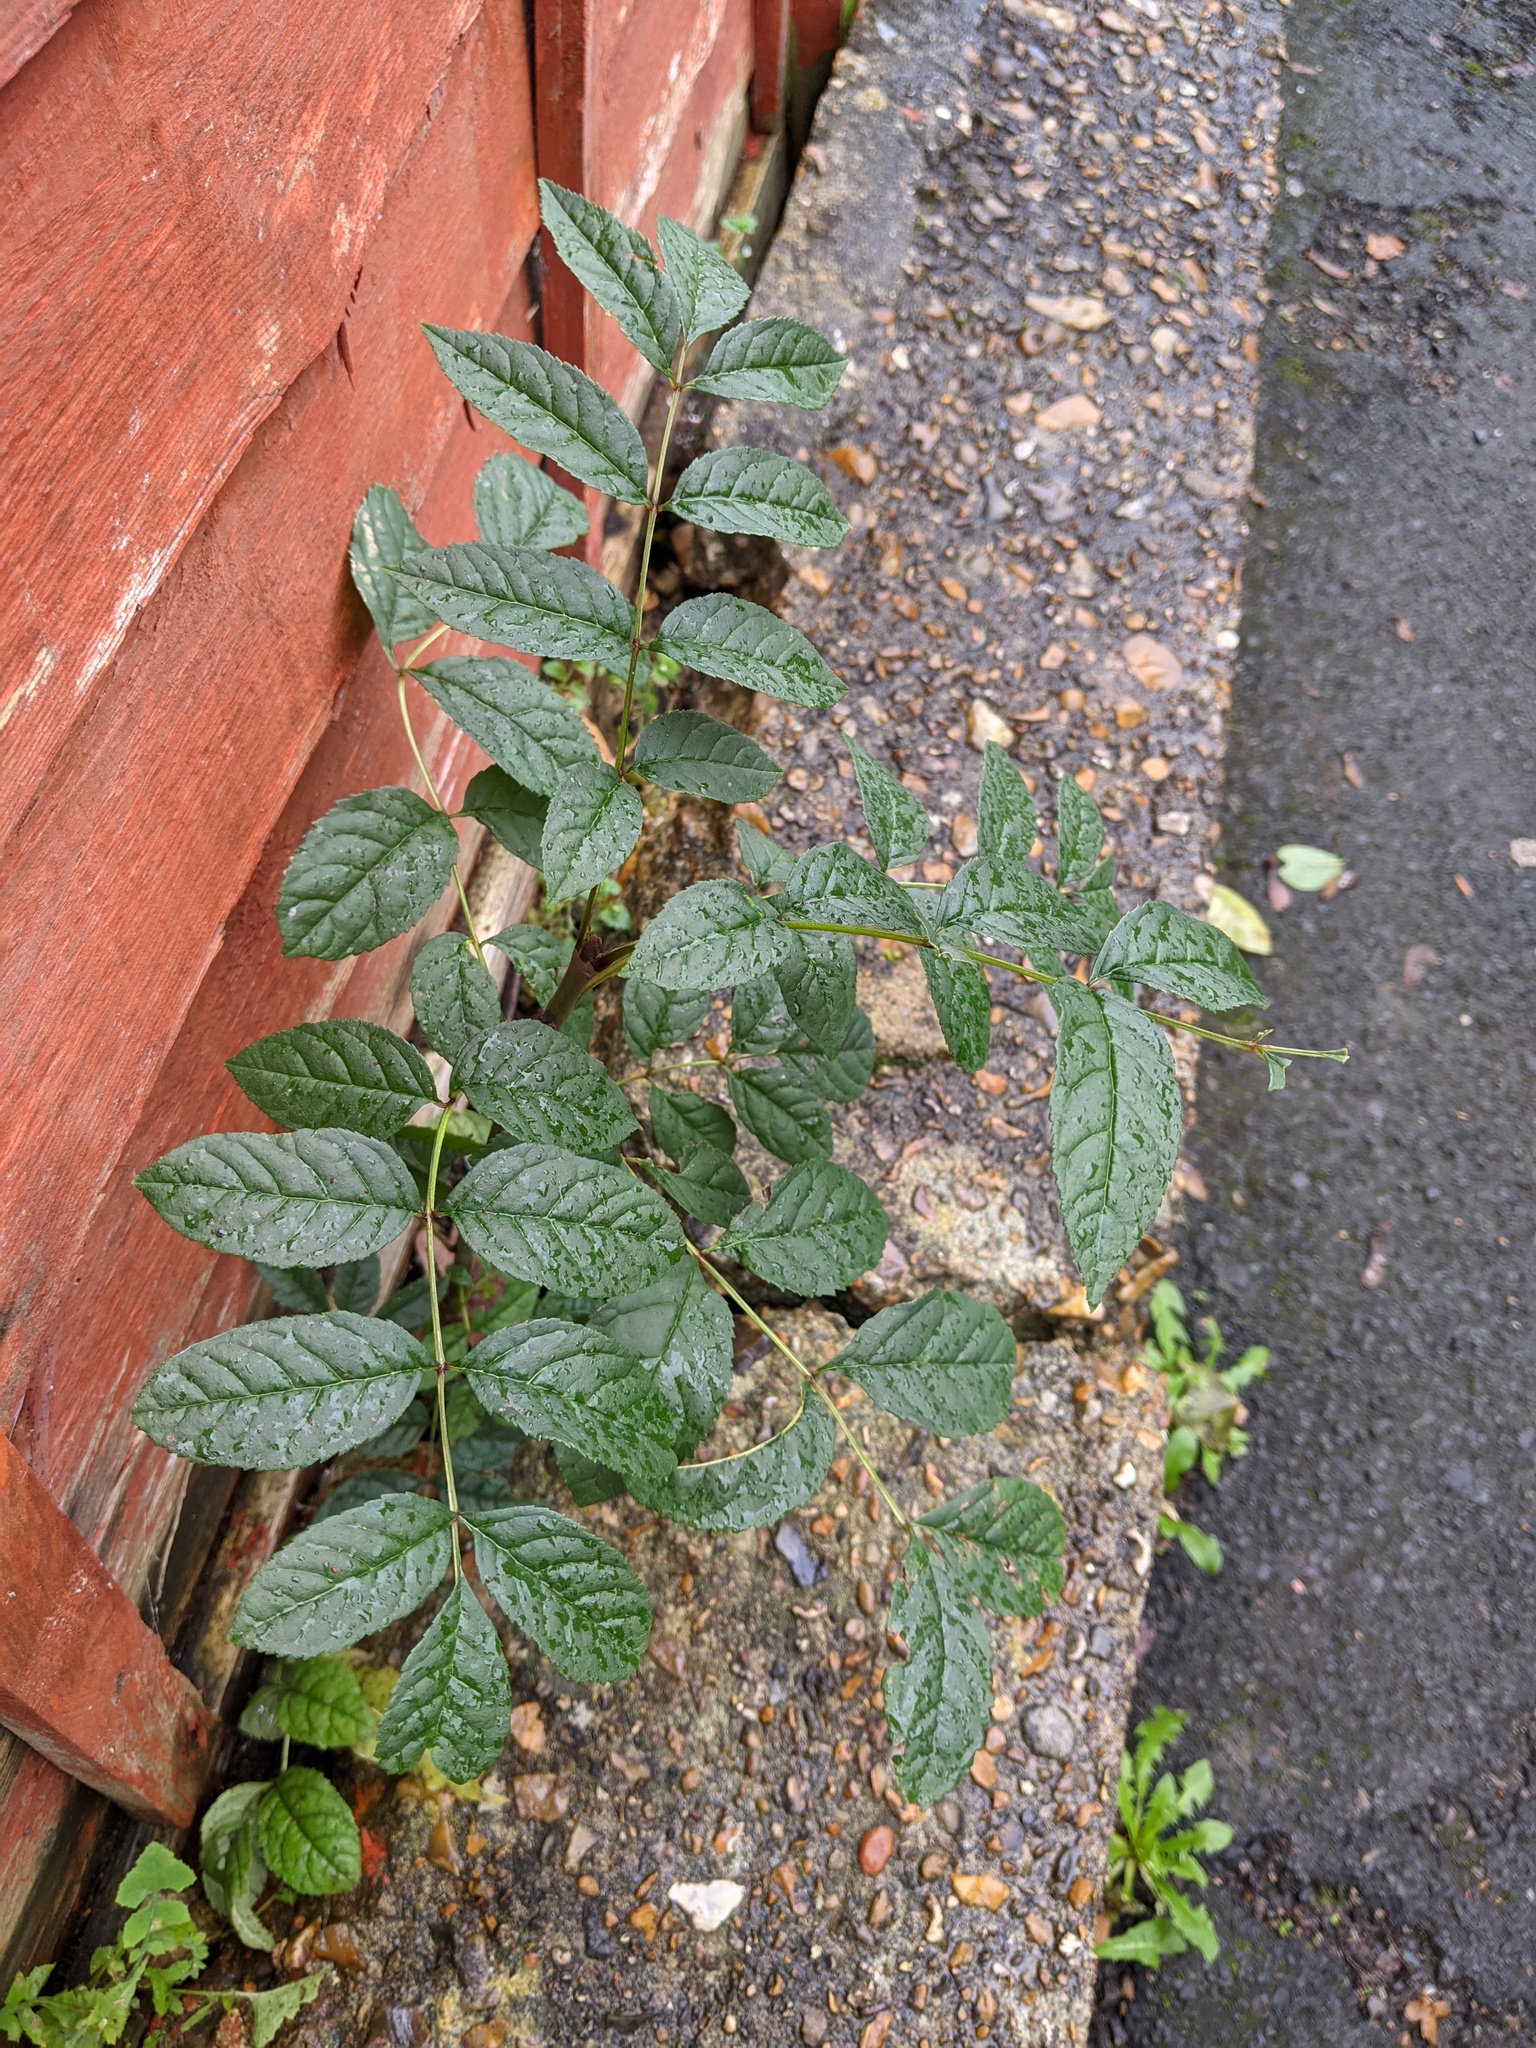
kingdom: Plantae
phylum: Tracheophyta
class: Magnoliopsida
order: Lamiales
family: Oleaceae
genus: Fraxinus
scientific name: Fraxinus excelsior
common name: European ash
